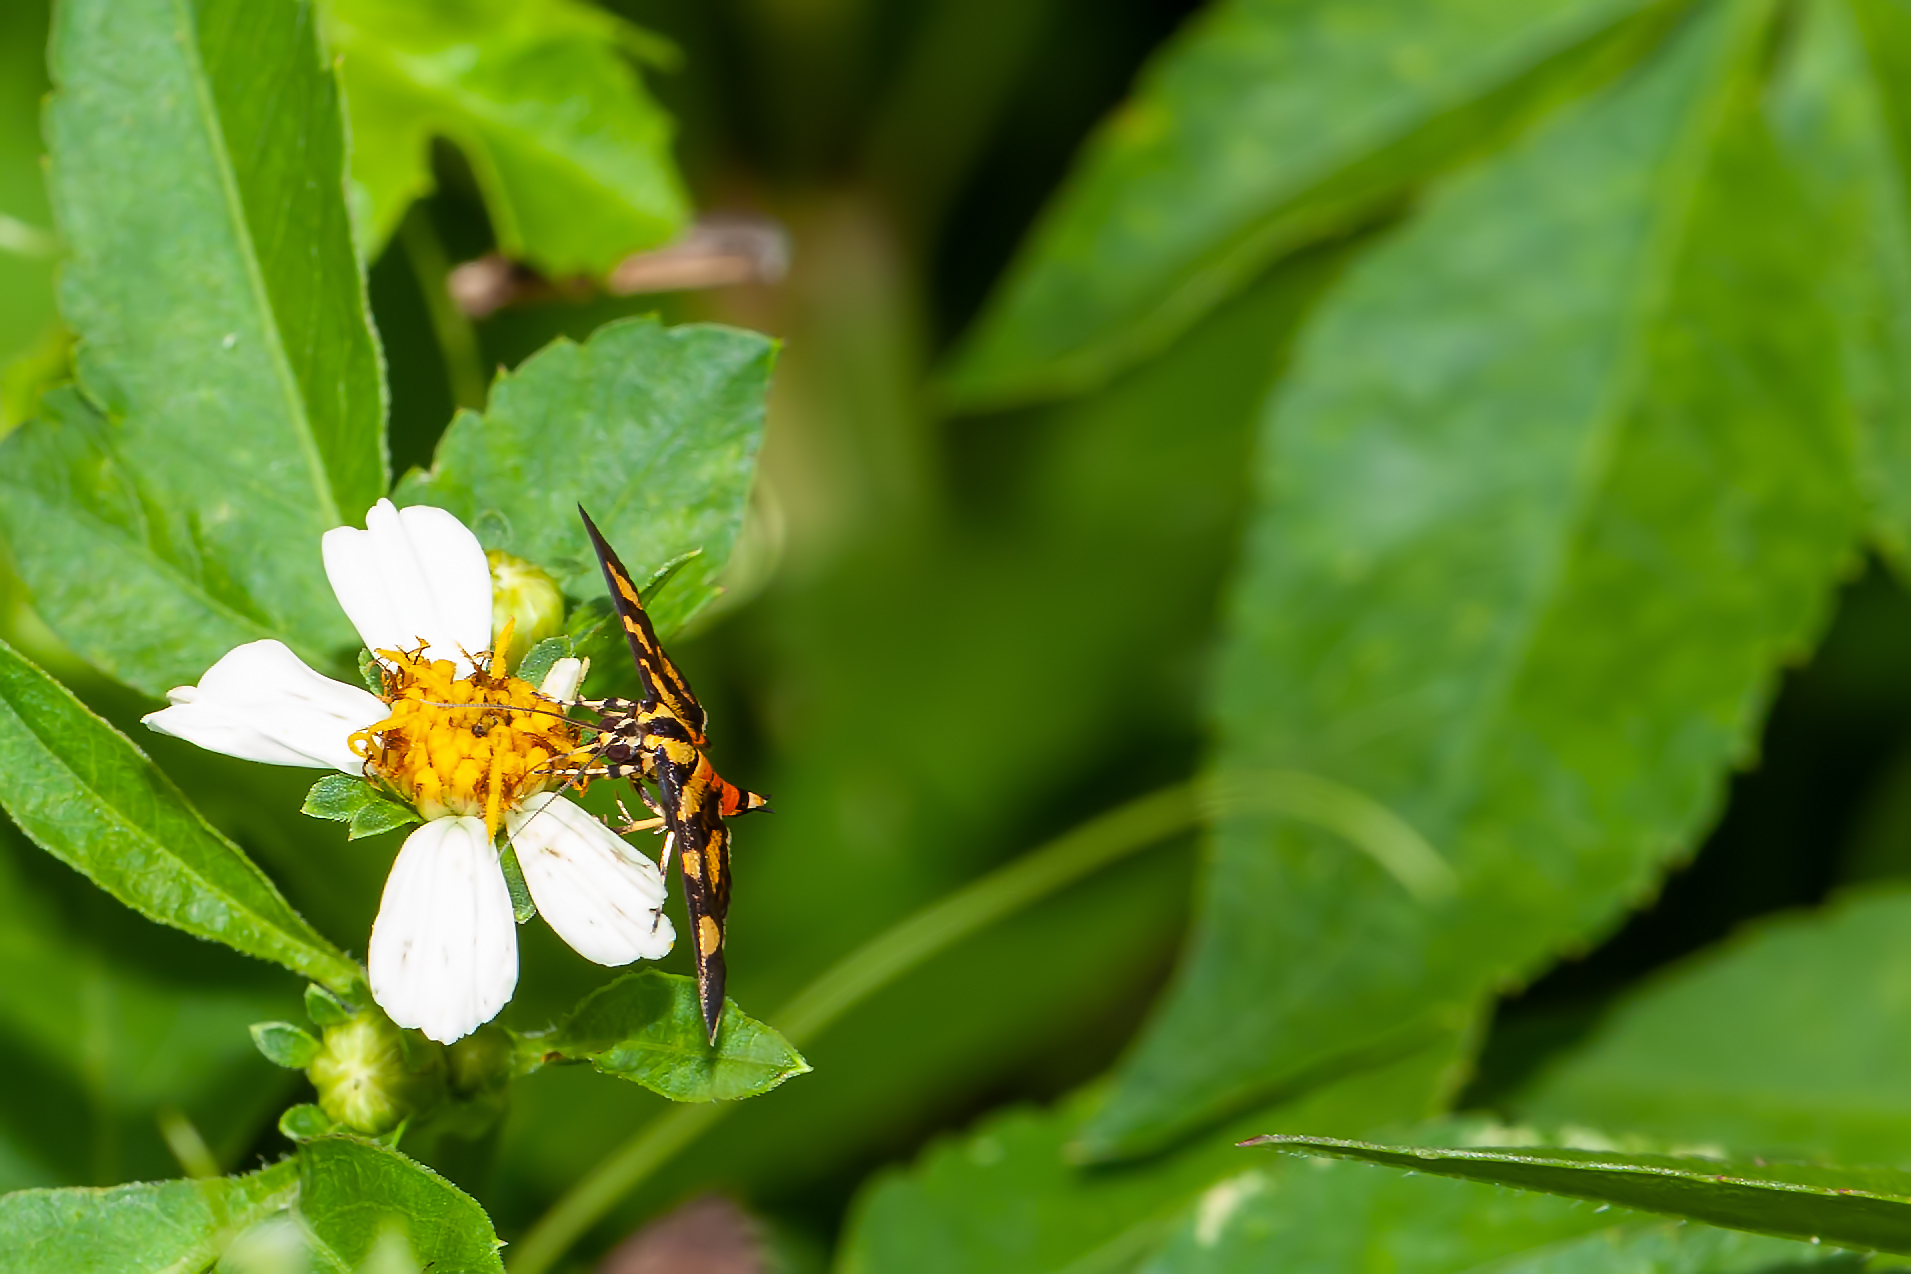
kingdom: Animalia
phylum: Arthropoda
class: Insecta
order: Lepidoptera
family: Crambidae
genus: Syngamia
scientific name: Syngamia florella
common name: Orange-spotted flower moth
